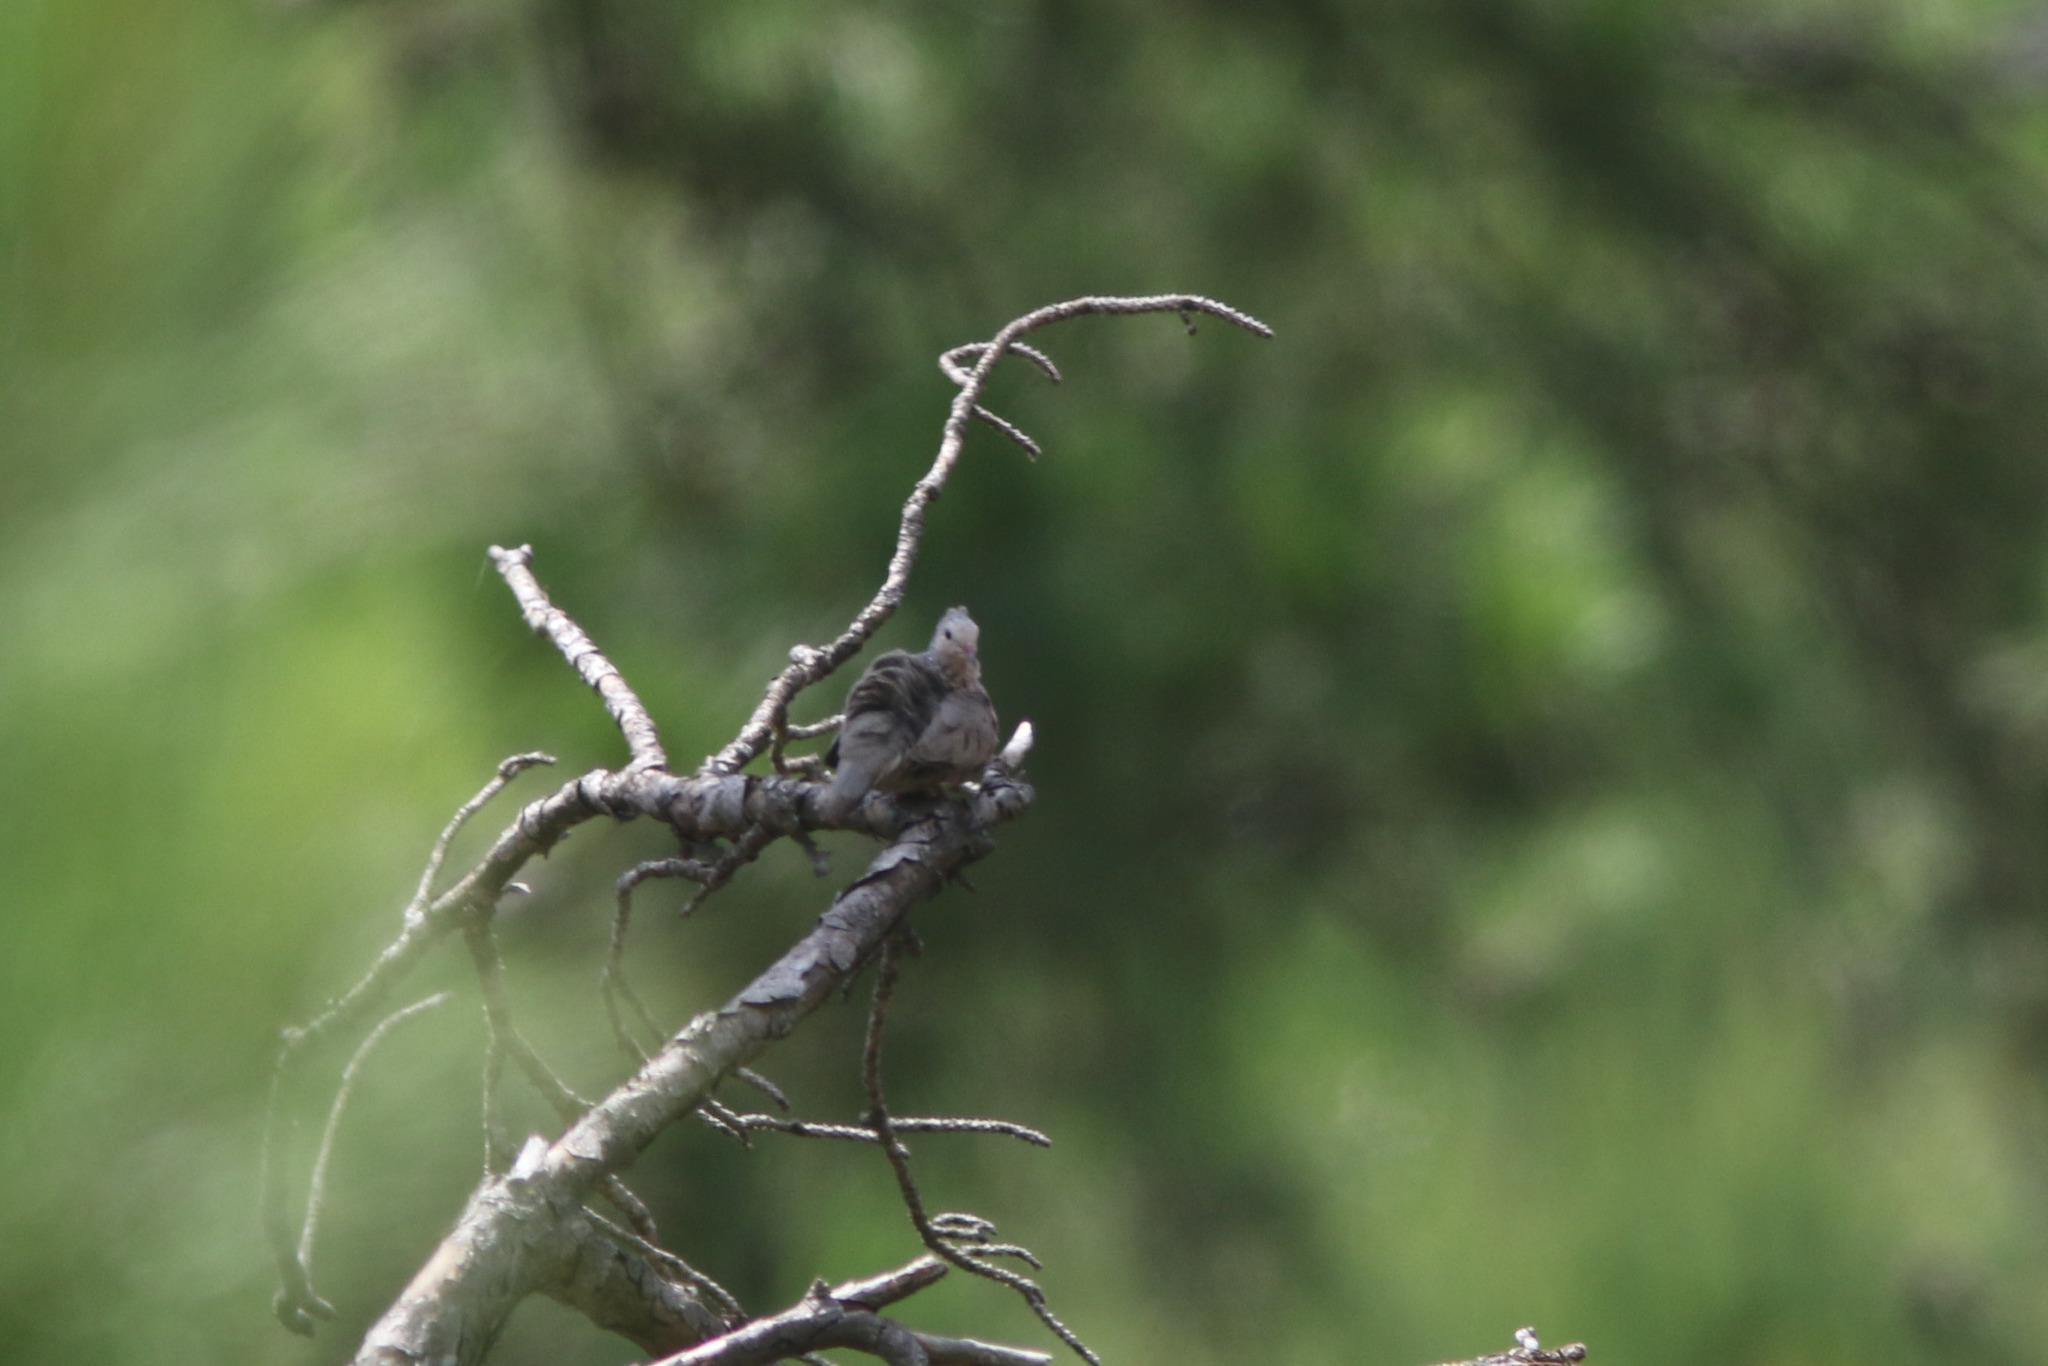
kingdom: Animalia
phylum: Chordata
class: Aves
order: Columbiformes
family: Columbidae
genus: Columbina
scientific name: Columbina passerina
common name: Common ground-dove
